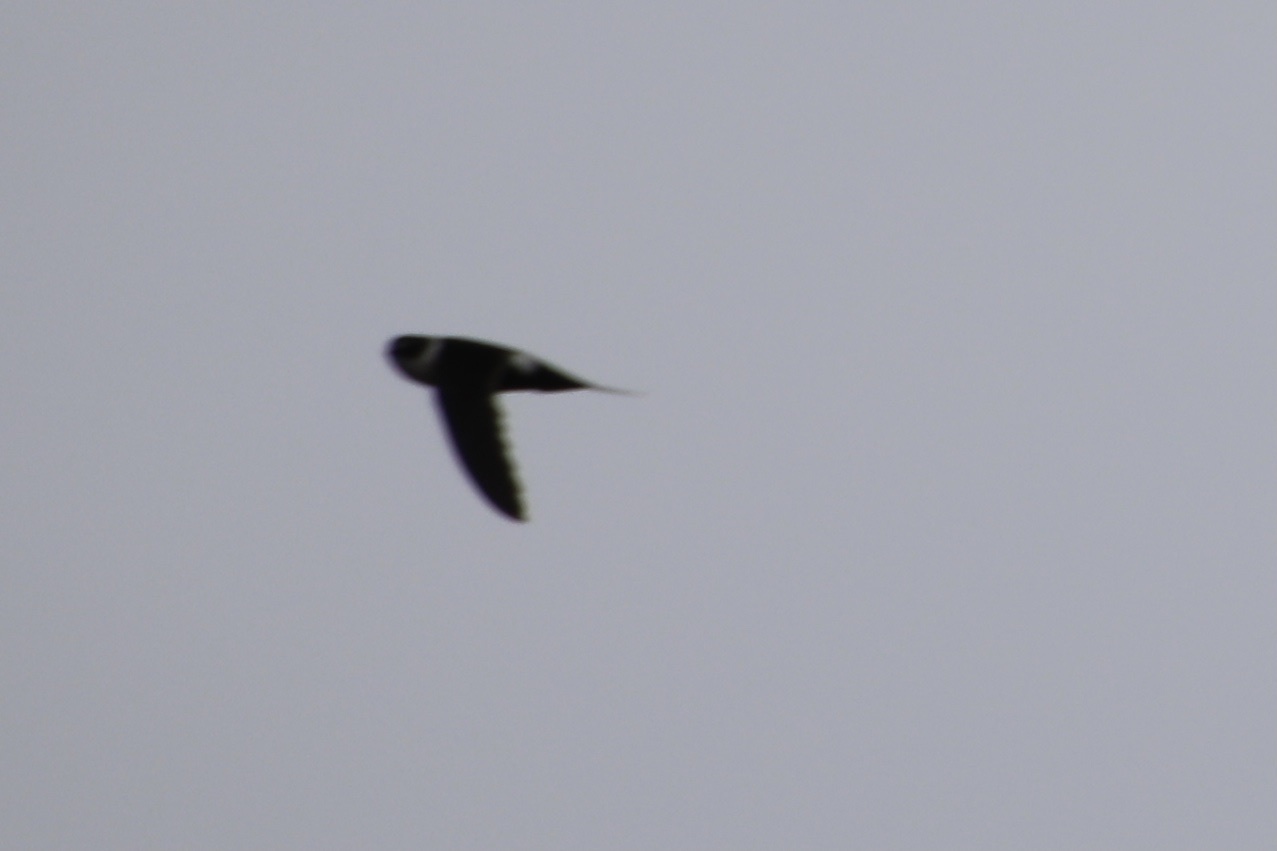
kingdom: Animalia
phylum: Chordata
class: Aves
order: Apodiformes
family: Apodidae
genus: Panyptila
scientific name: Panyptila cayennensis
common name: Lesser swallow-tailed swift
